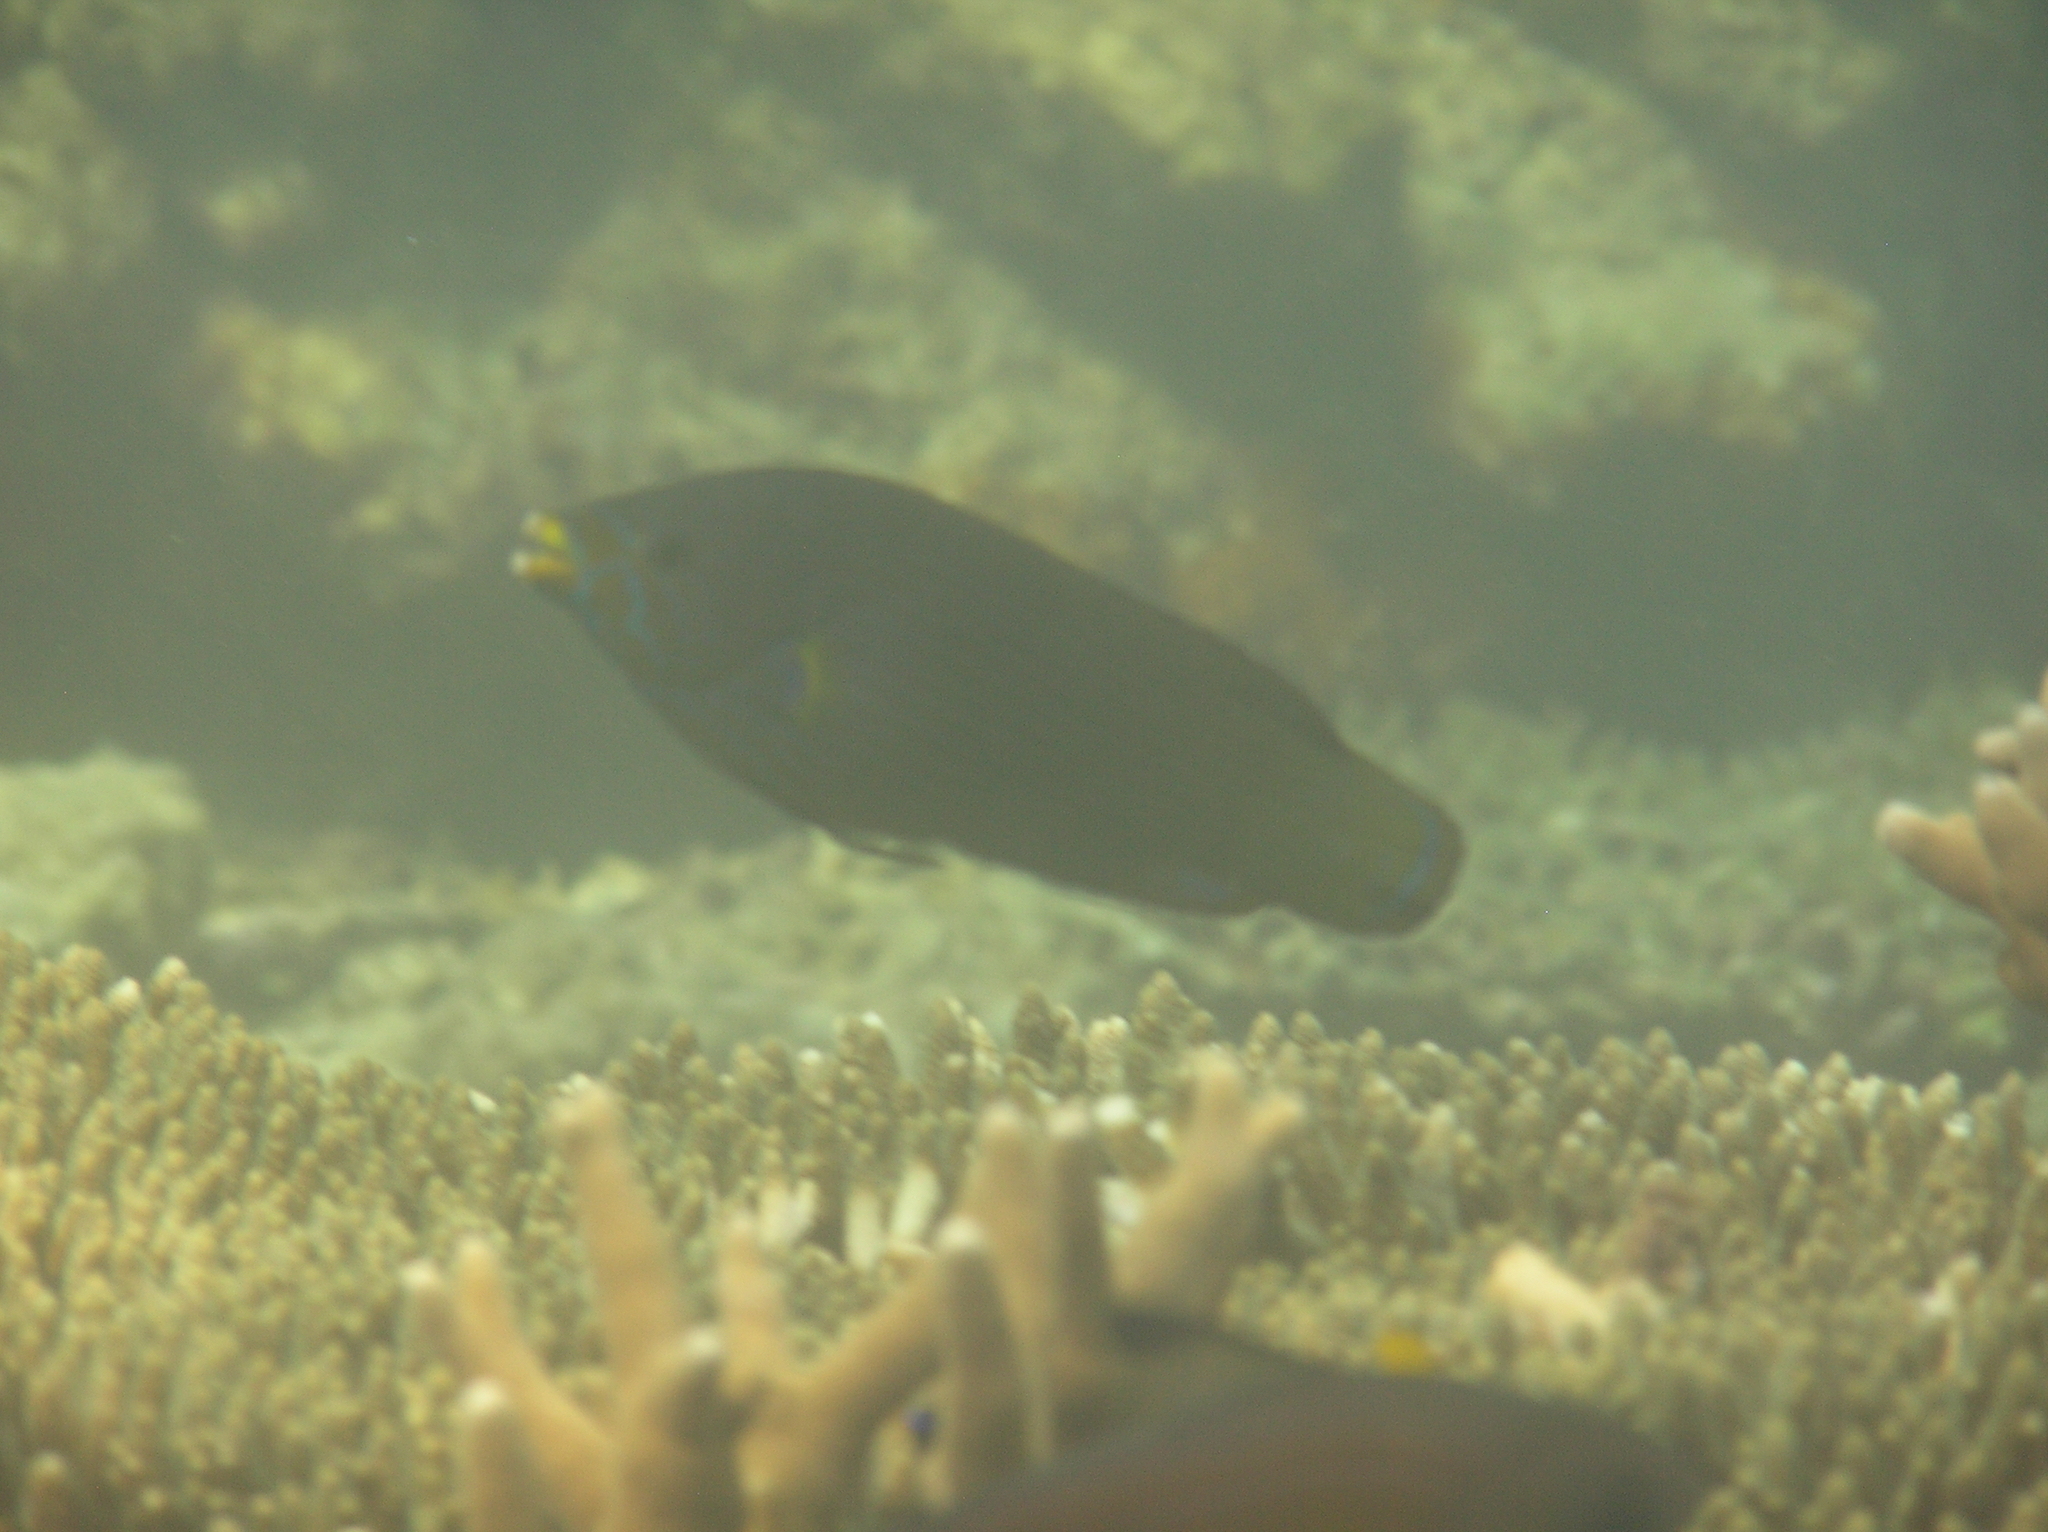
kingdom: Animalia
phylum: Chordata
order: Perciformes
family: Labridae
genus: Labrichthys
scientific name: Labrichthys unilineatus
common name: Onelined wrasse
